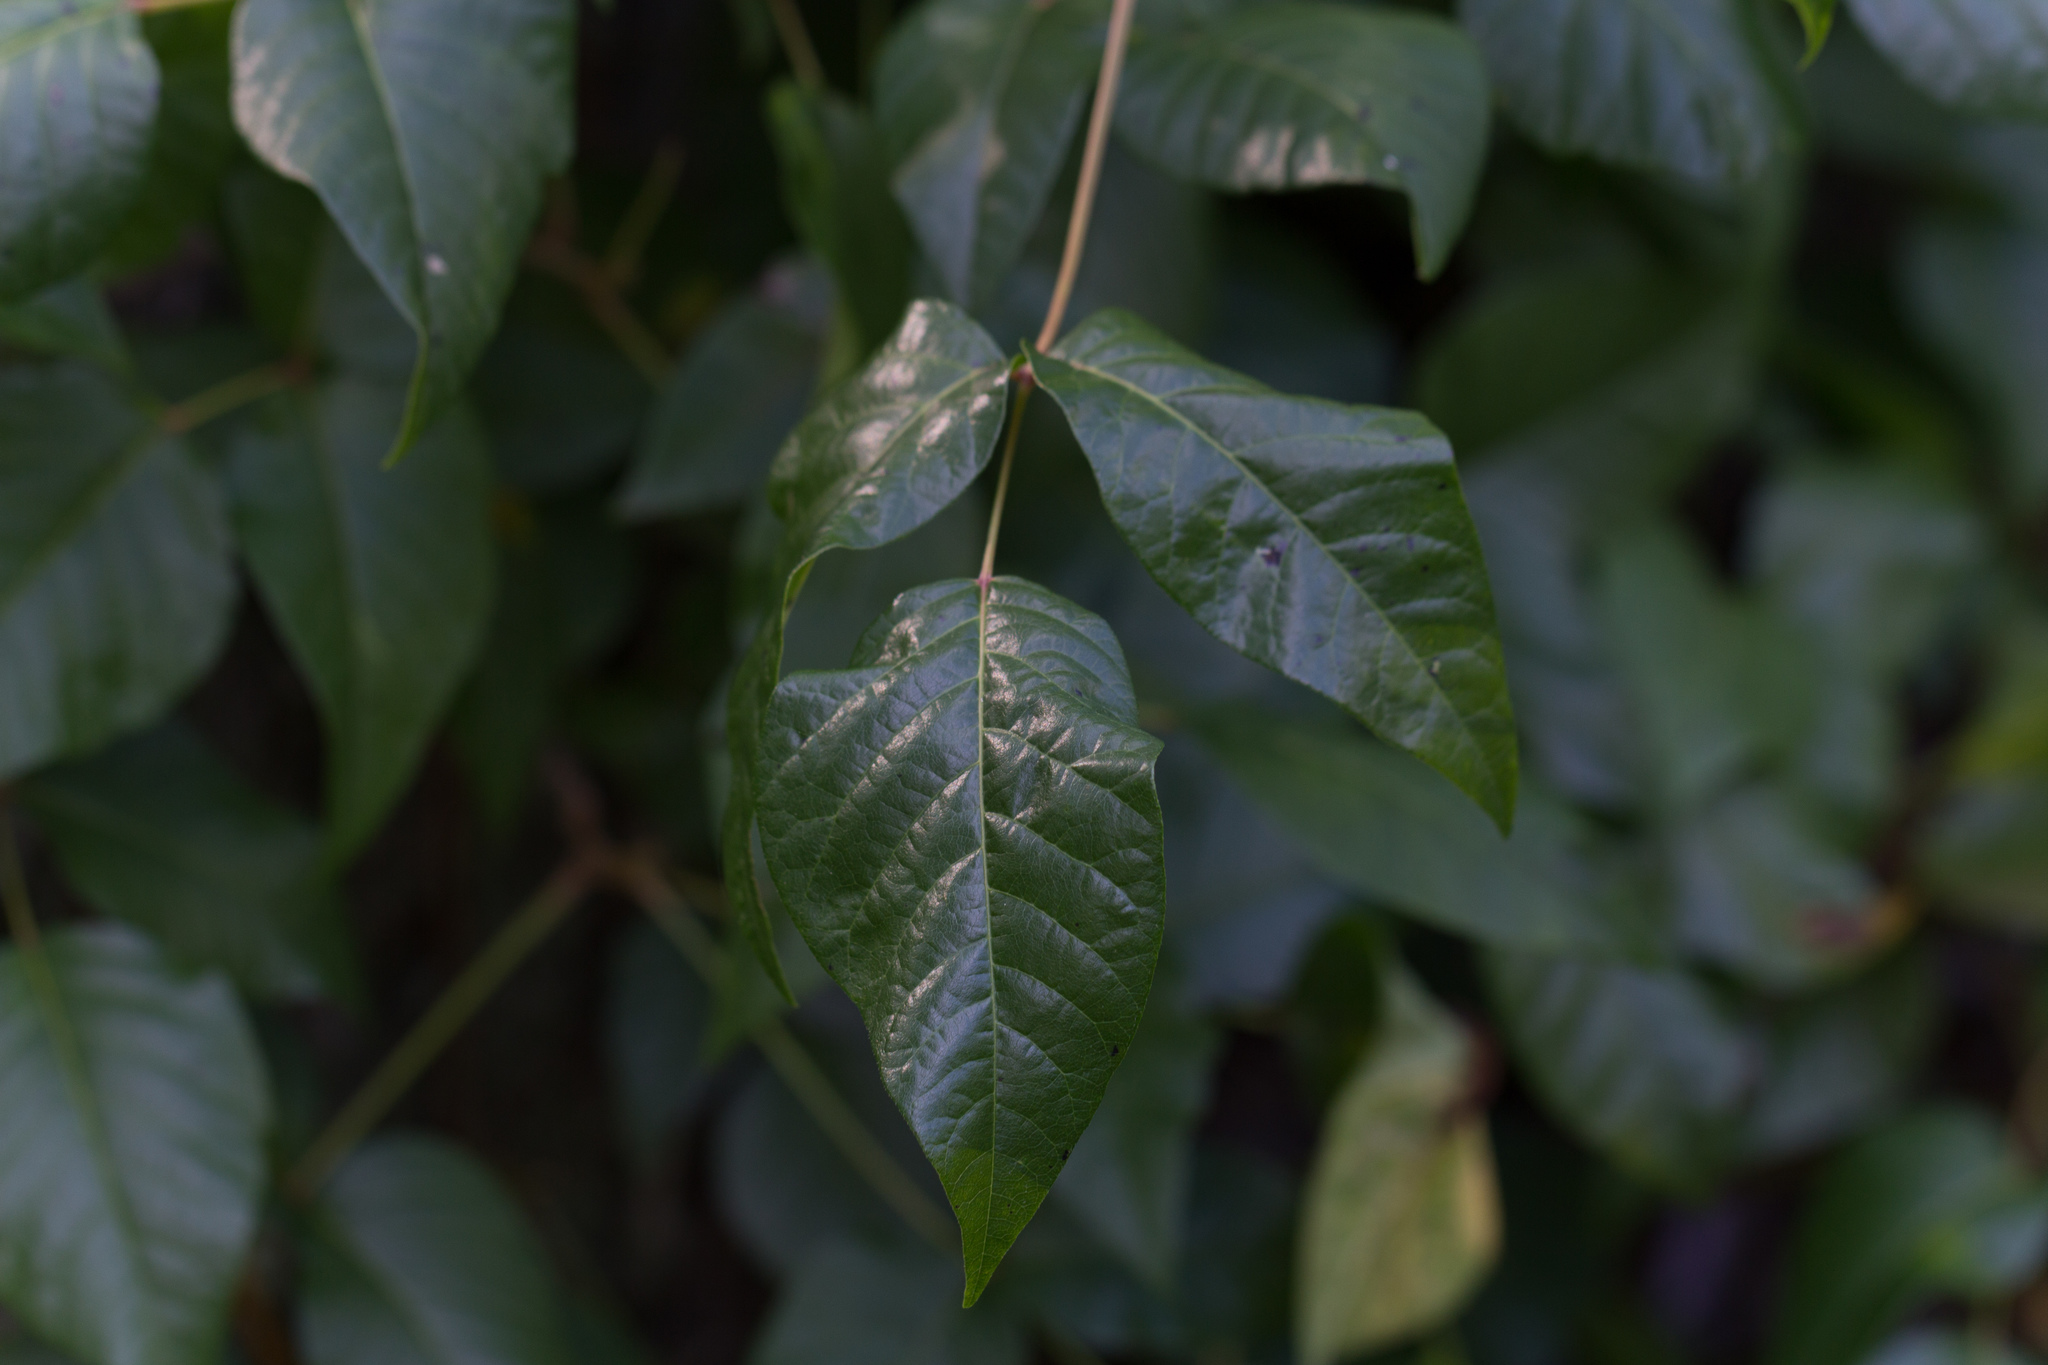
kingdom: Plantae
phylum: Tracheophyta
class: Magnoliopsida
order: Sapindales
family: Anacardiaceae
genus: Toxicodendron
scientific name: Toxicodendron radicans
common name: Poison ivy
